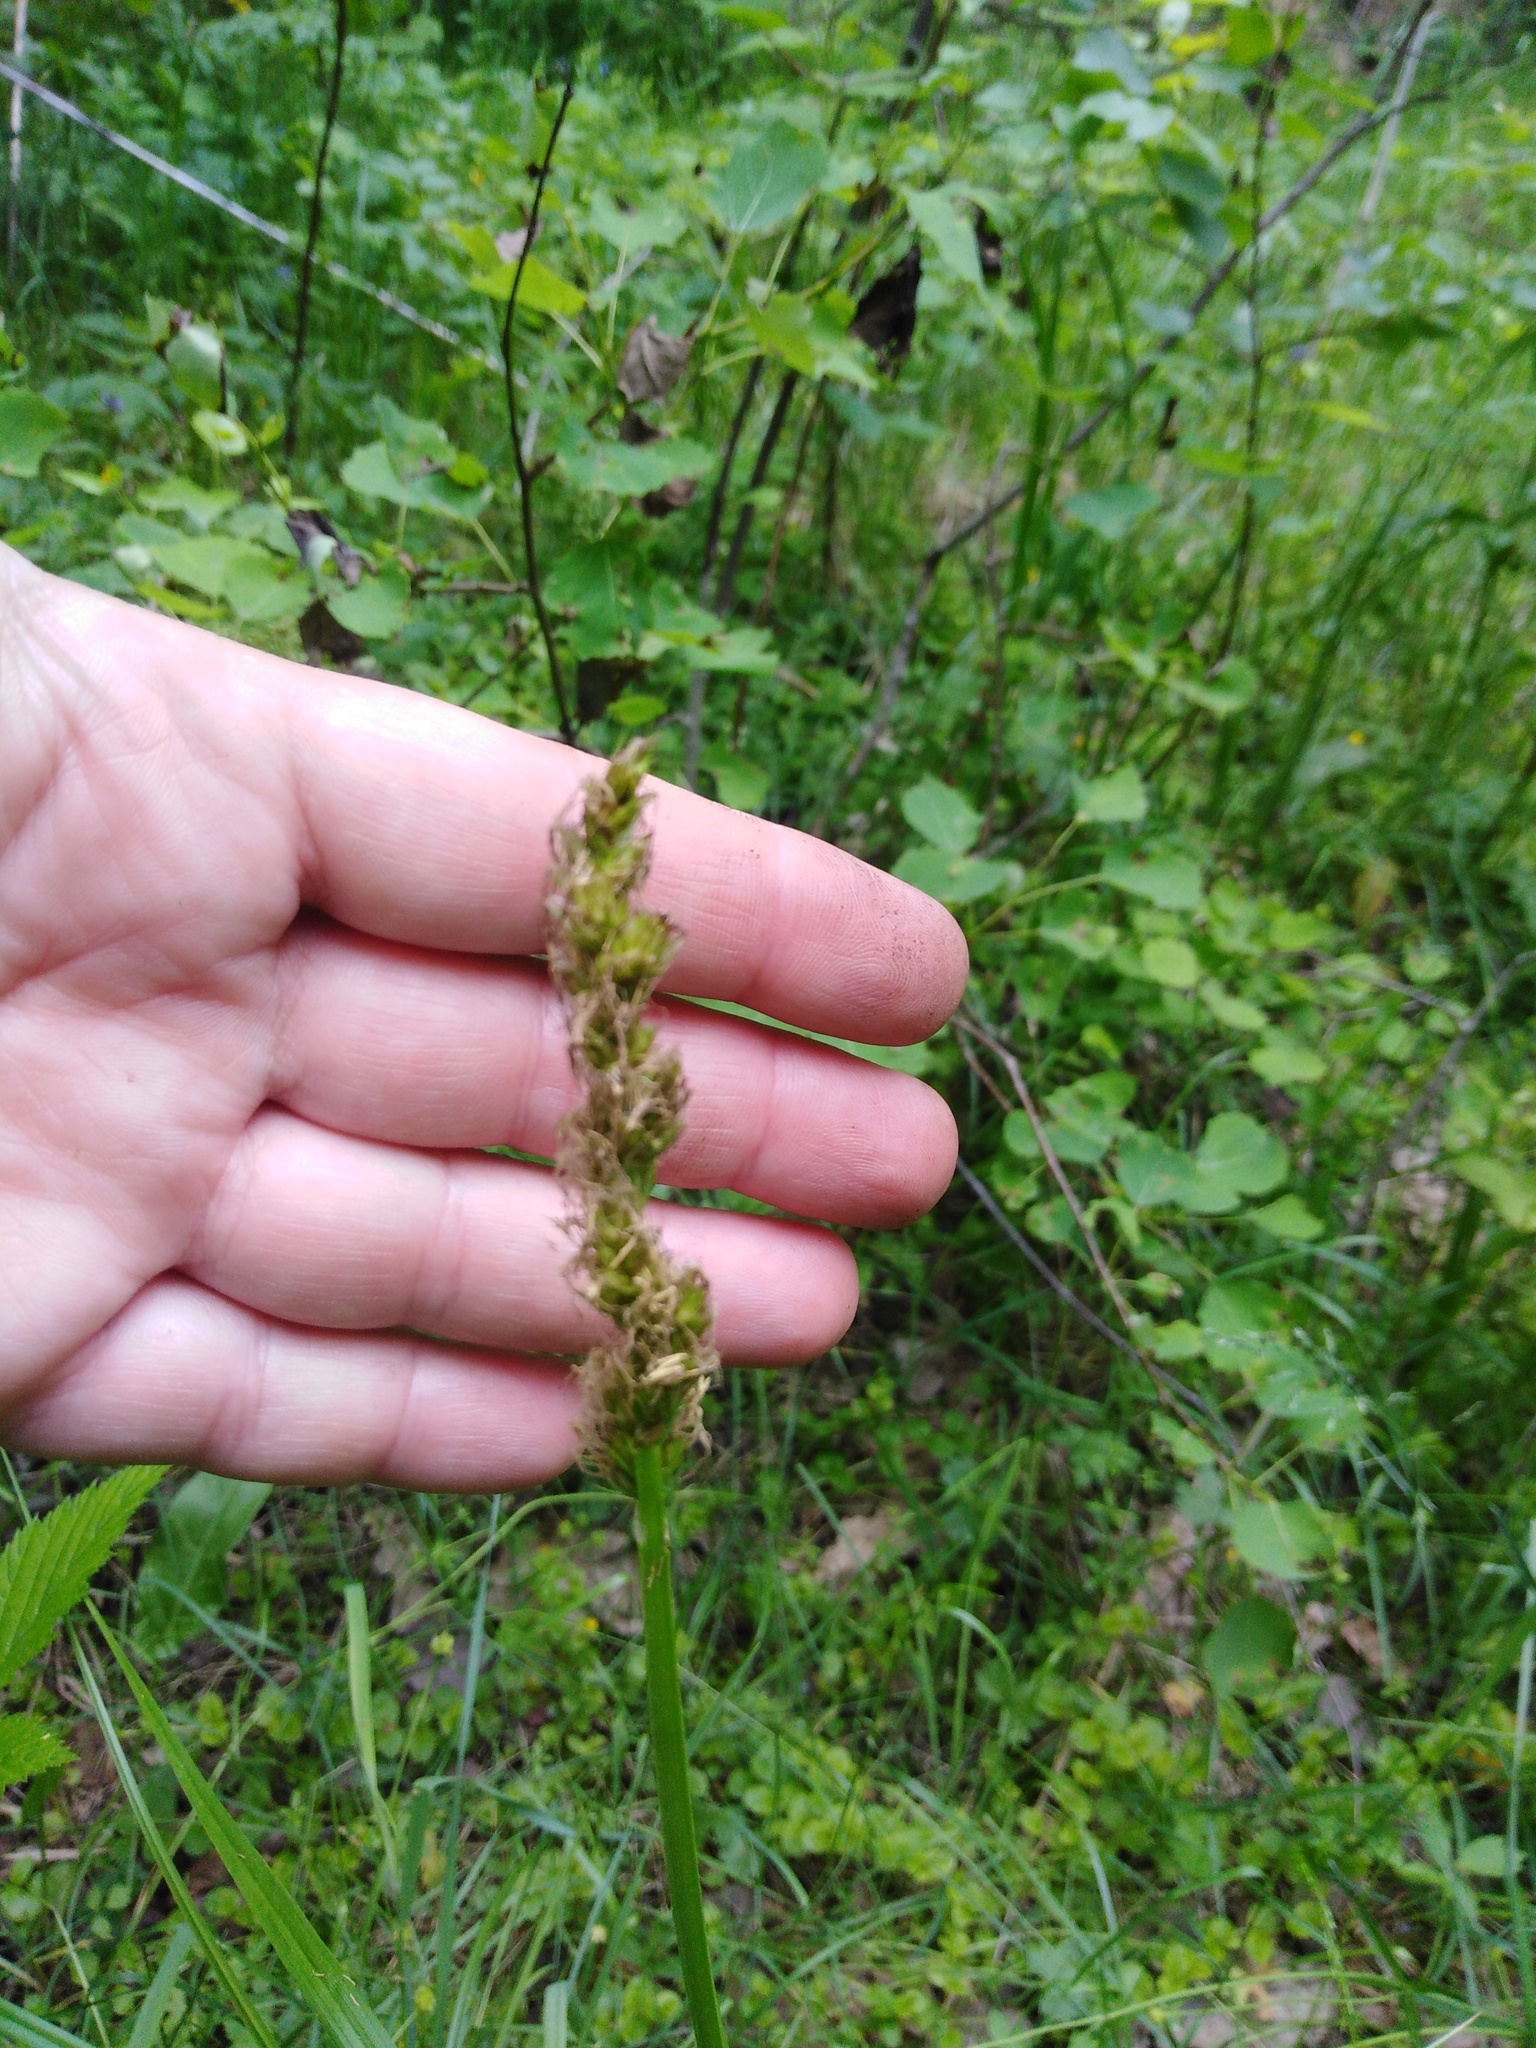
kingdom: Plantae
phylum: Tracheophyta
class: Liliopsida
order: Poales
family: Cyperaceae
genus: Carex
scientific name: Carex vulpina
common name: True fox-sedge
